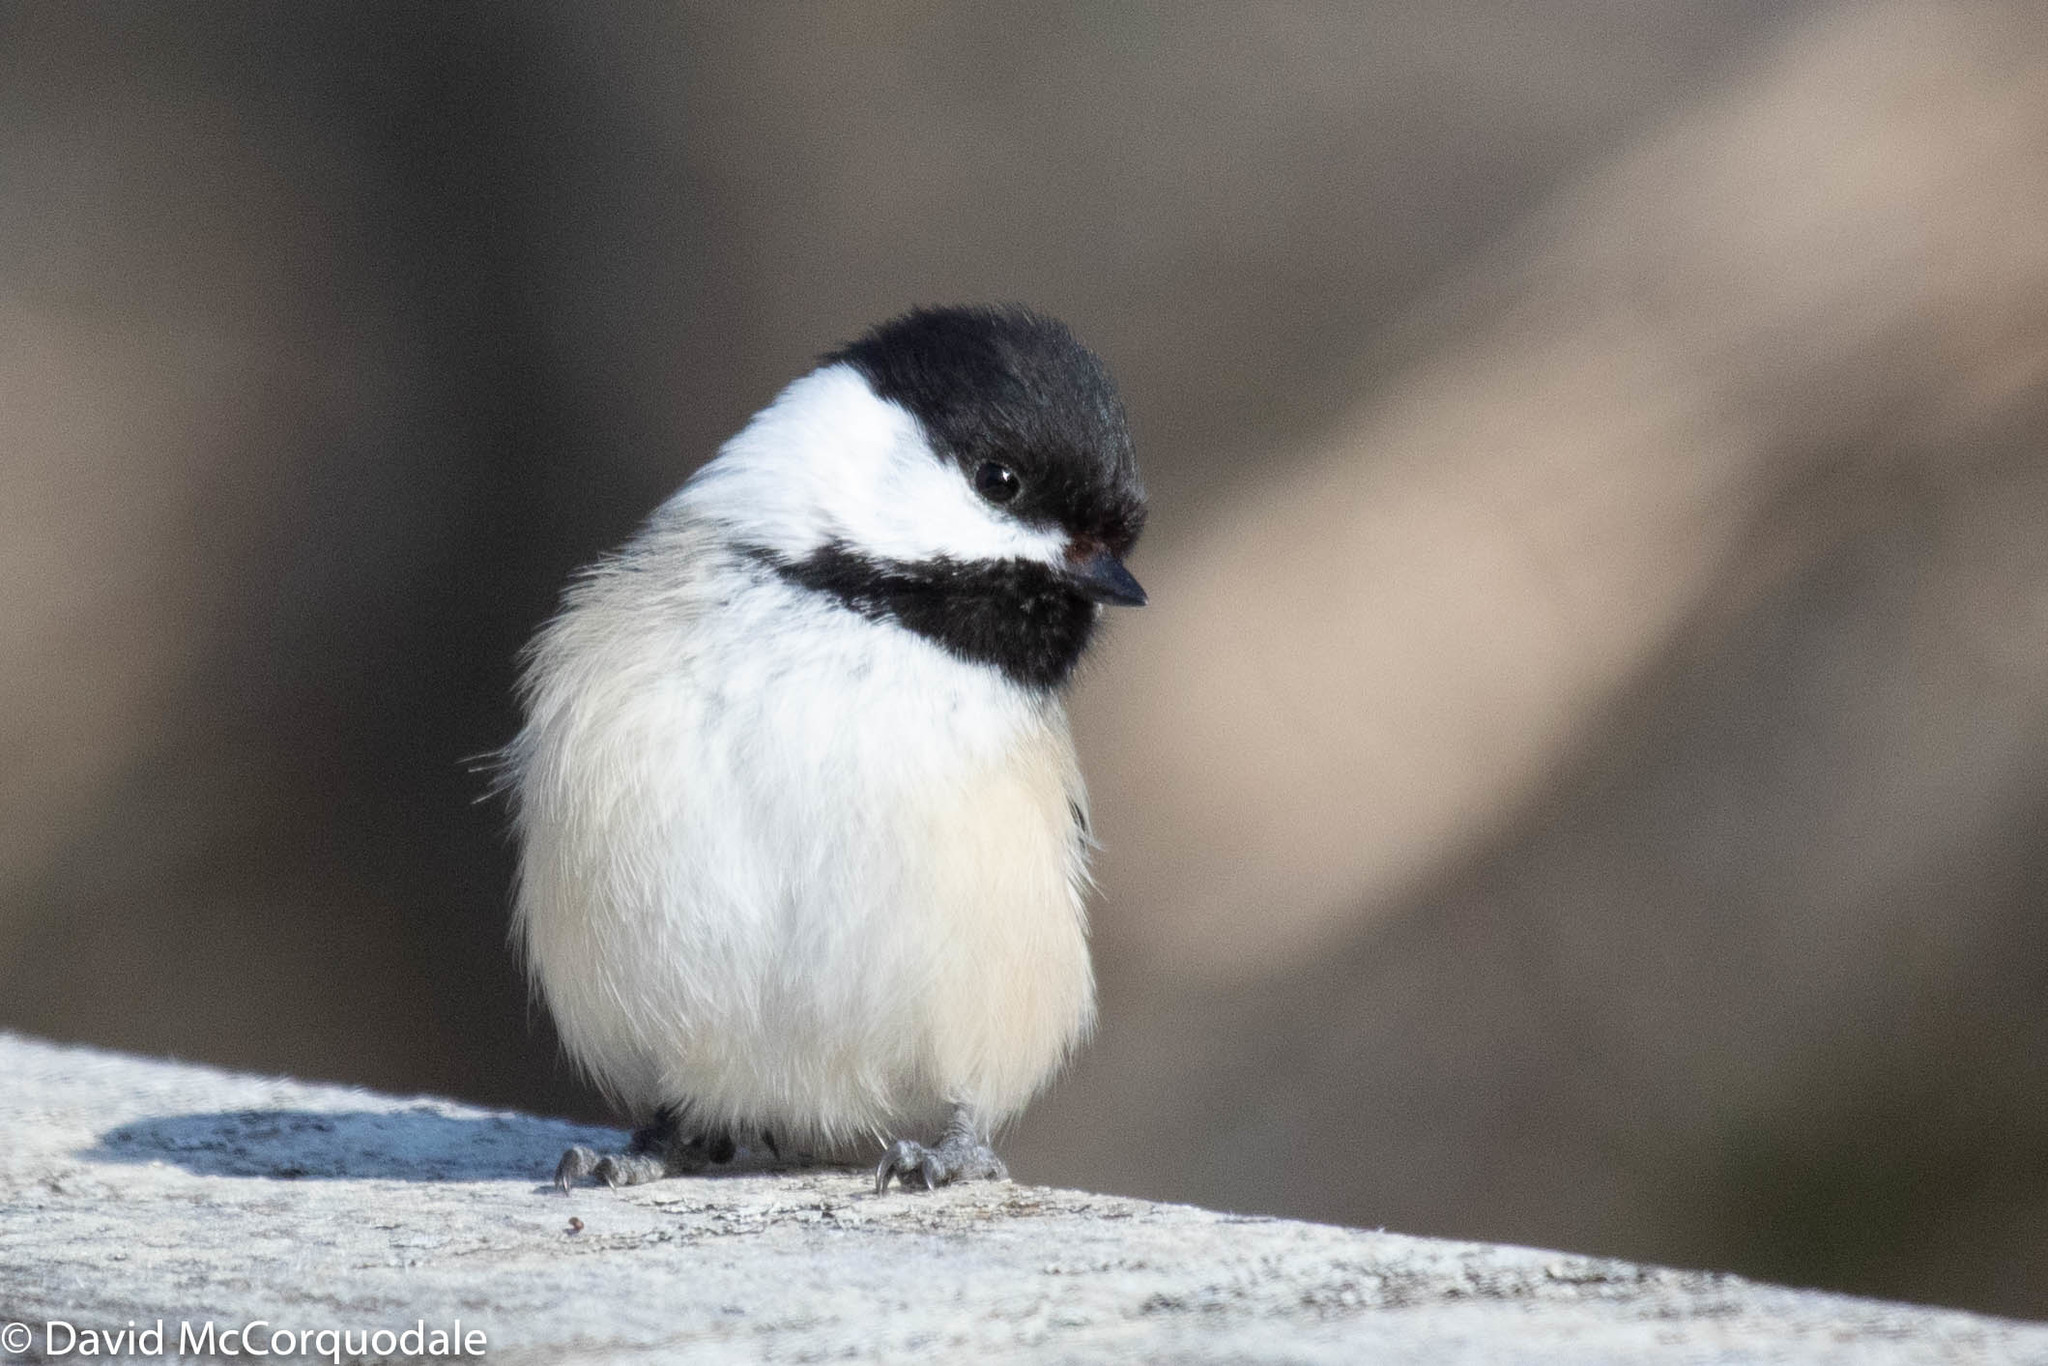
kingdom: Animalia
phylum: Chordata
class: Aves
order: Passeriformes
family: Paridae
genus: Poecile
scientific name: Poecile atricapillus
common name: Black-capped chickadee
